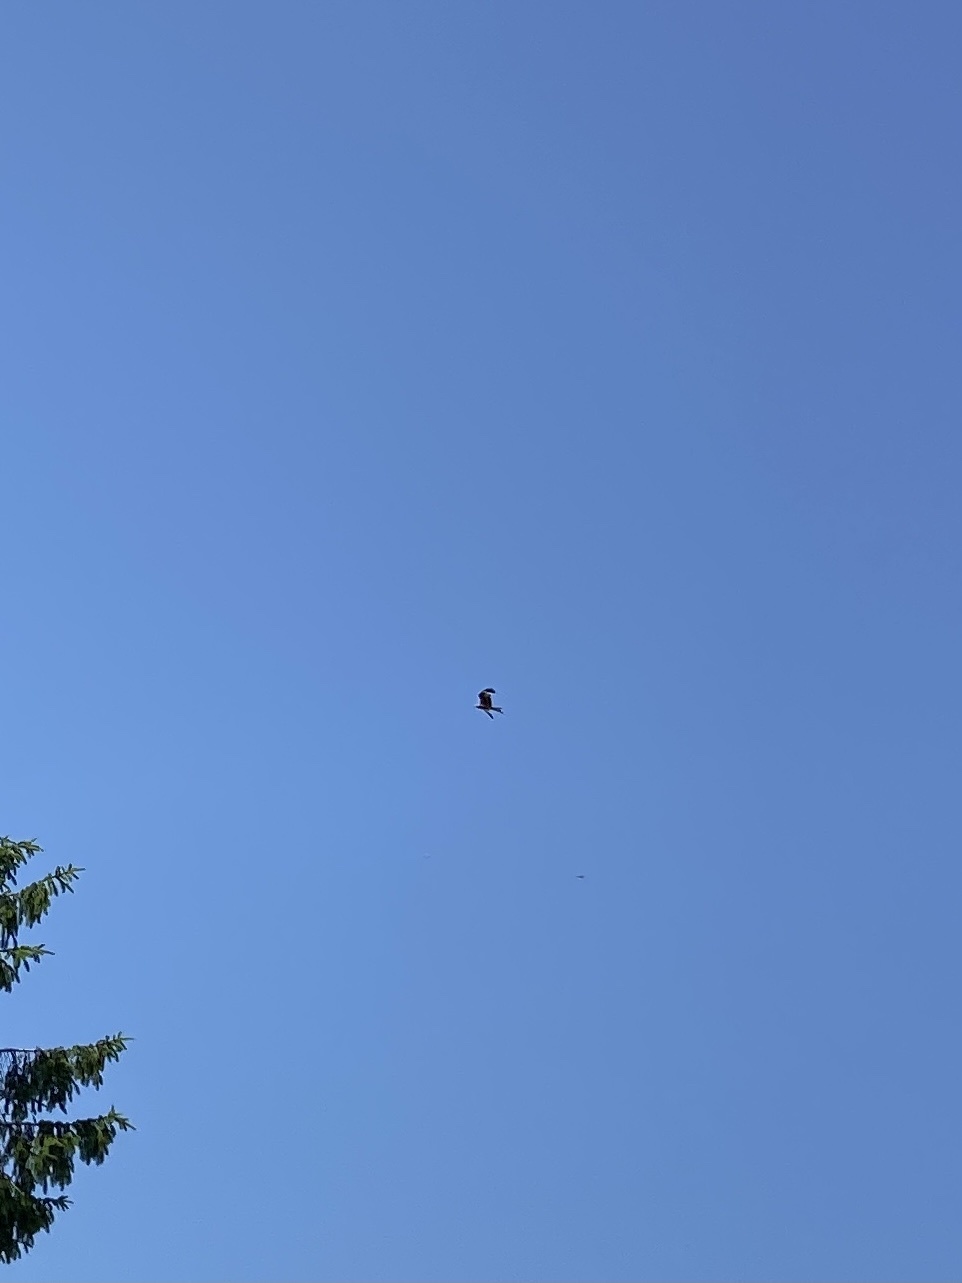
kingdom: Animalia
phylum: Chordata
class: Aves
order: Accipitriformes
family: Accipitridae
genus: Milvus
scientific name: Milvus milvus
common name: Red kite
